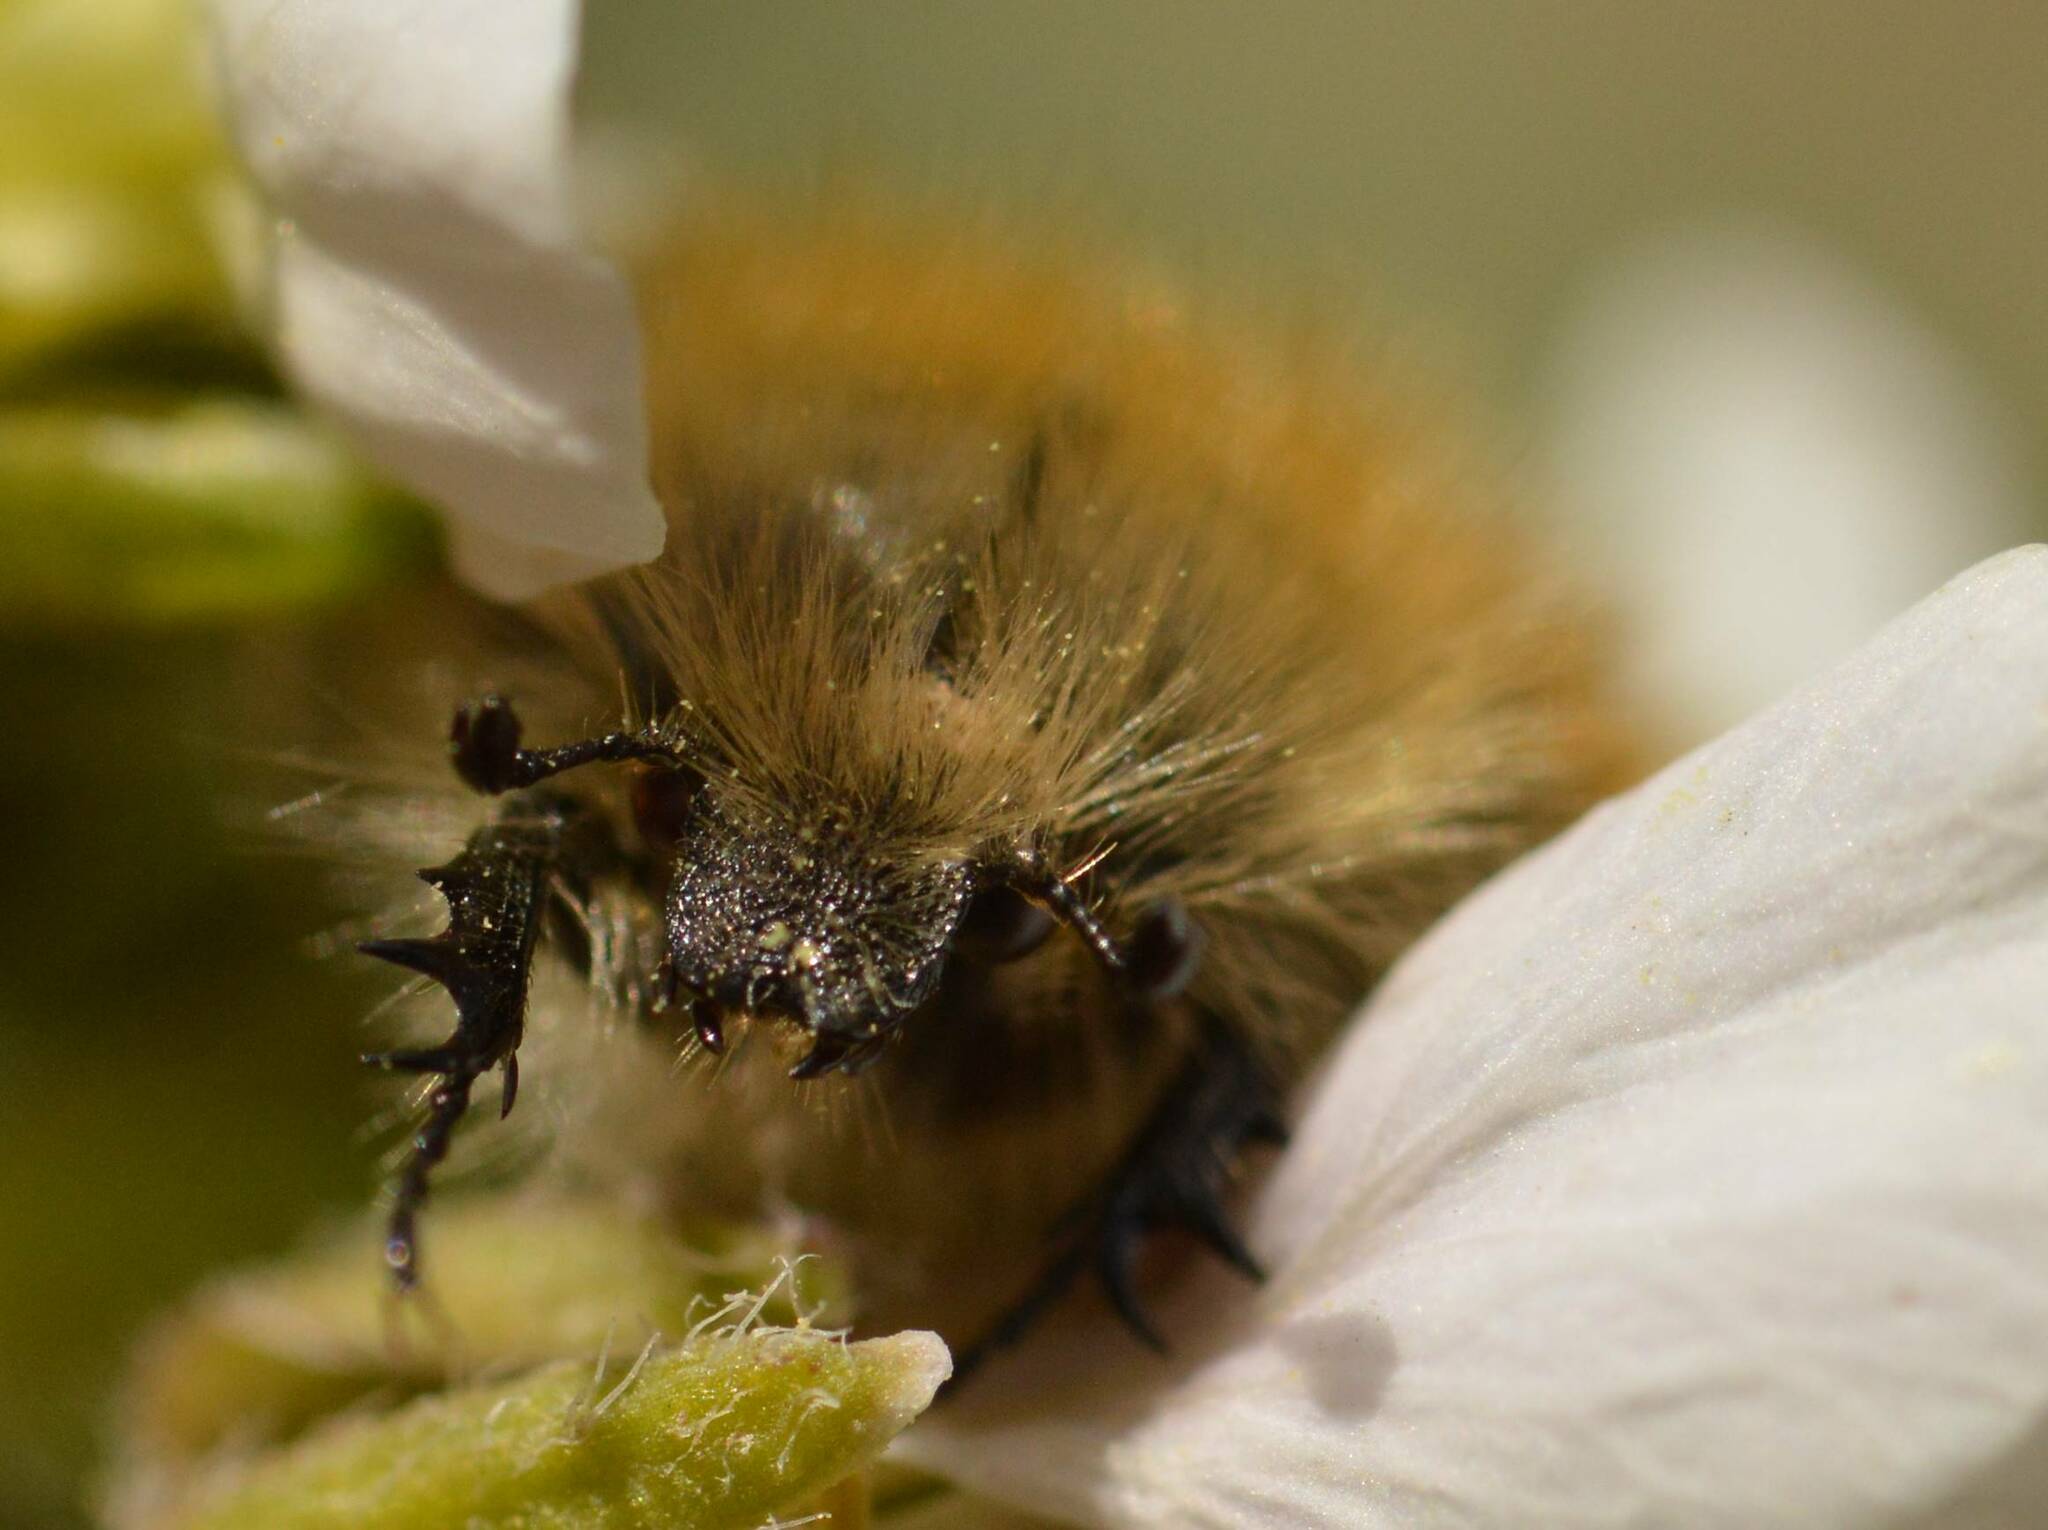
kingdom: Animalia
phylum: Arthropoda
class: Insecta
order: Coleoptera
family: Scarabaeidae
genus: Tropinota
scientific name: Tropinota squalida
